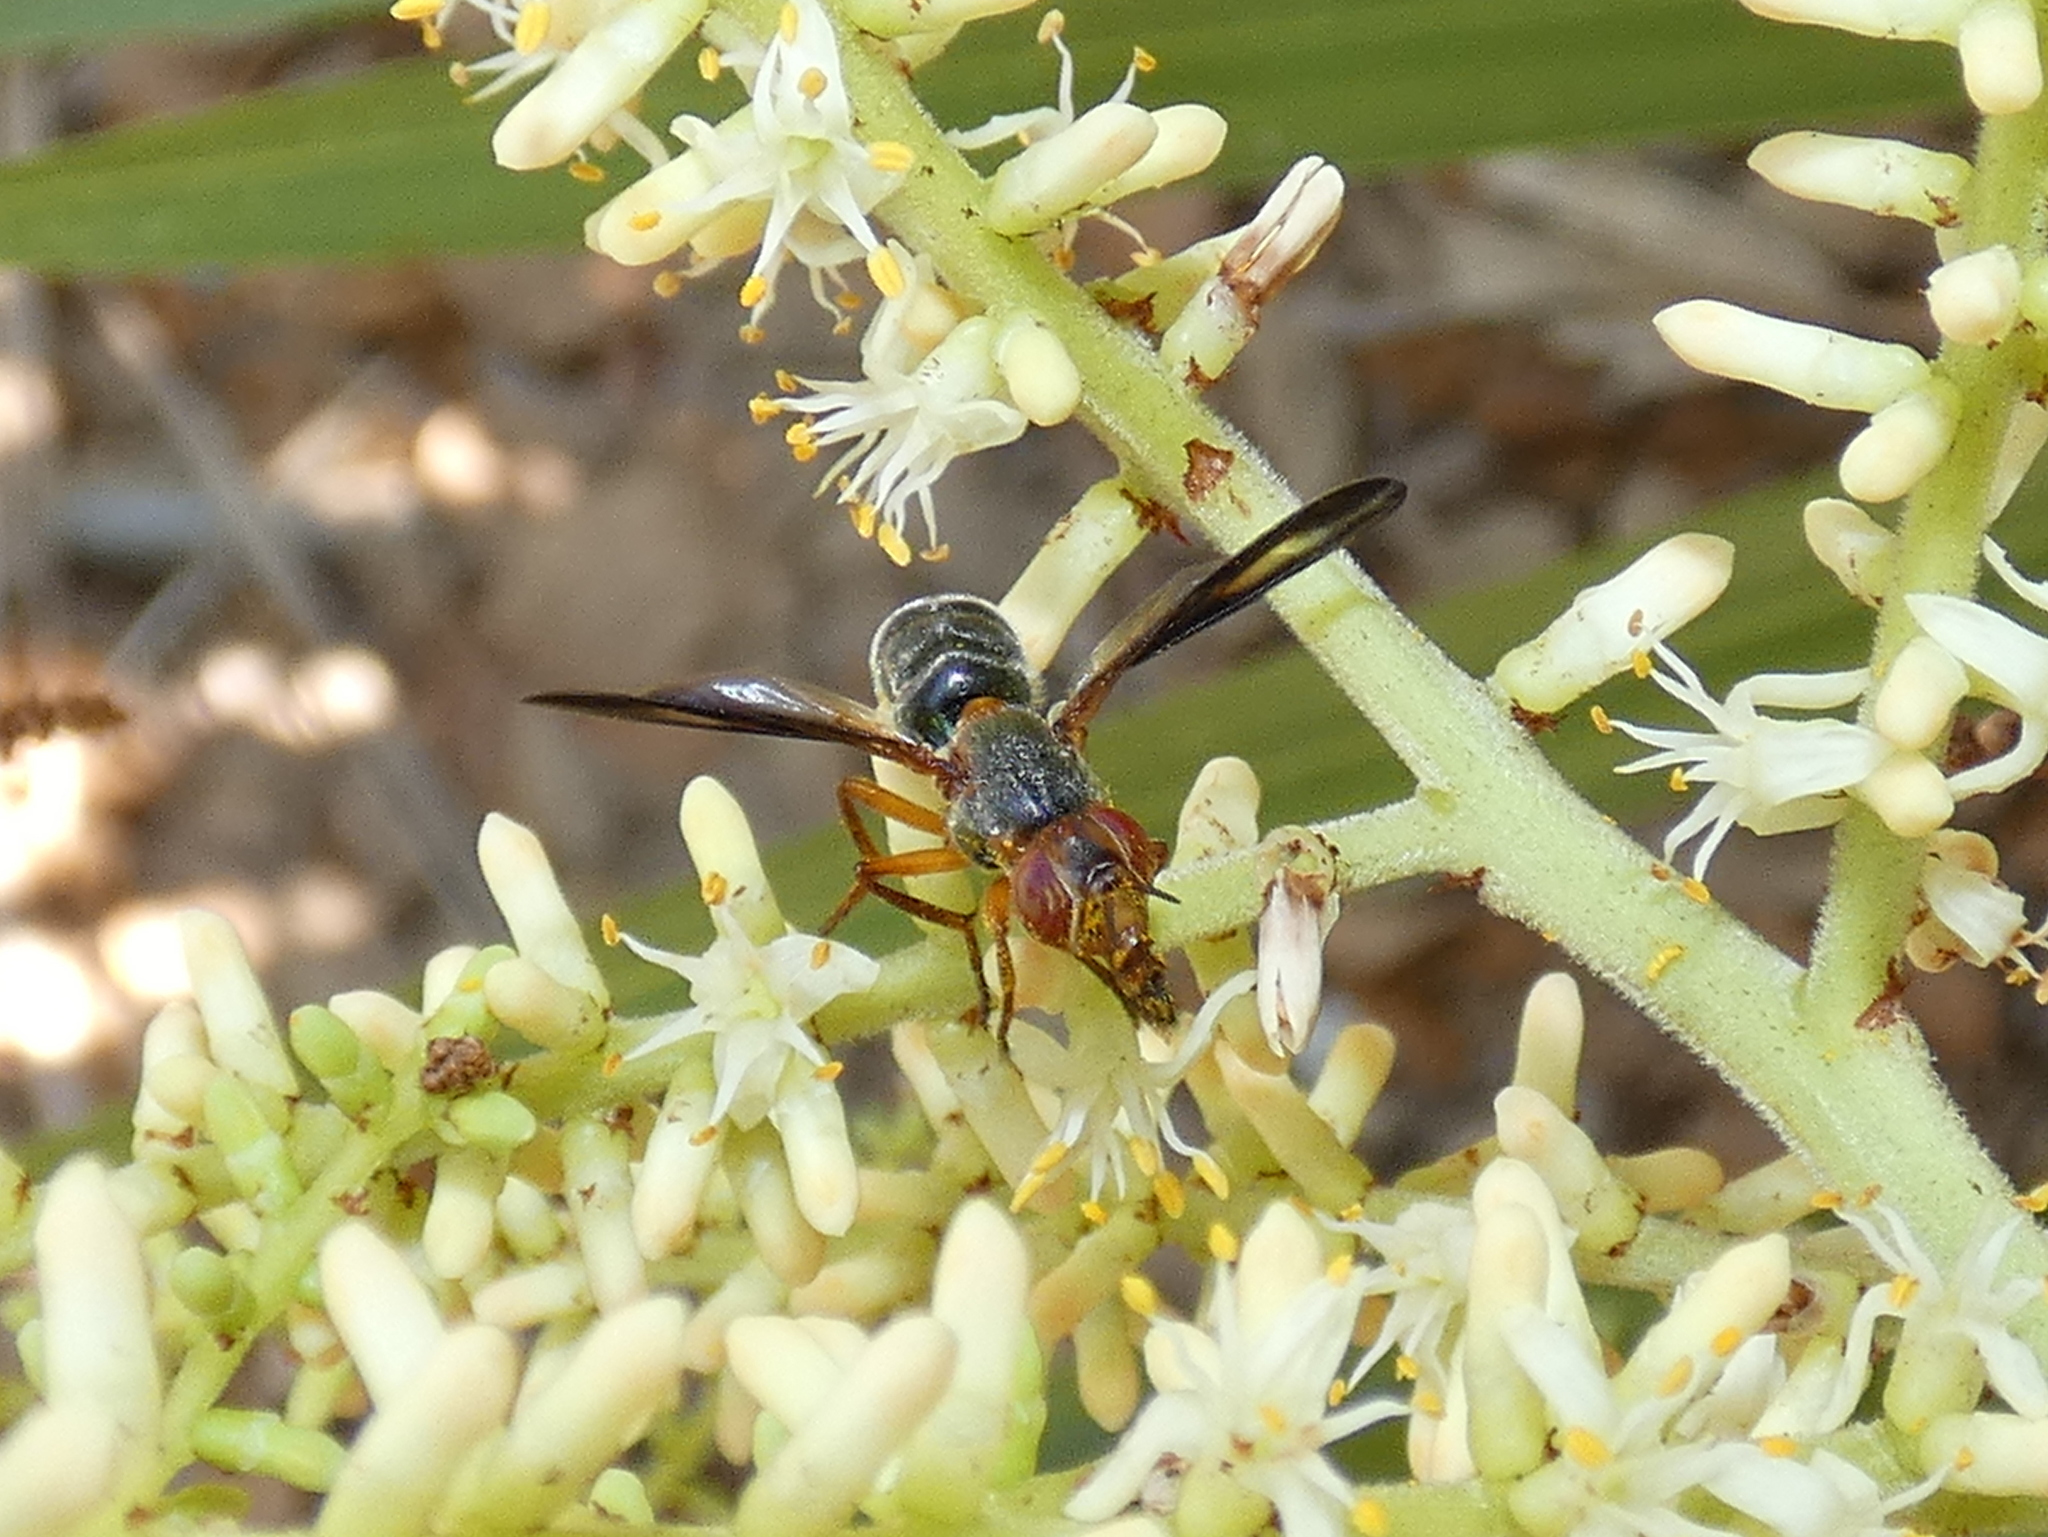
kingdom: Animalia
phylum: Arthropoda
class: Insecta
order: Diptera
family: Platystomatidae
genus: Senopterina
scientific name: Senopterina varia
